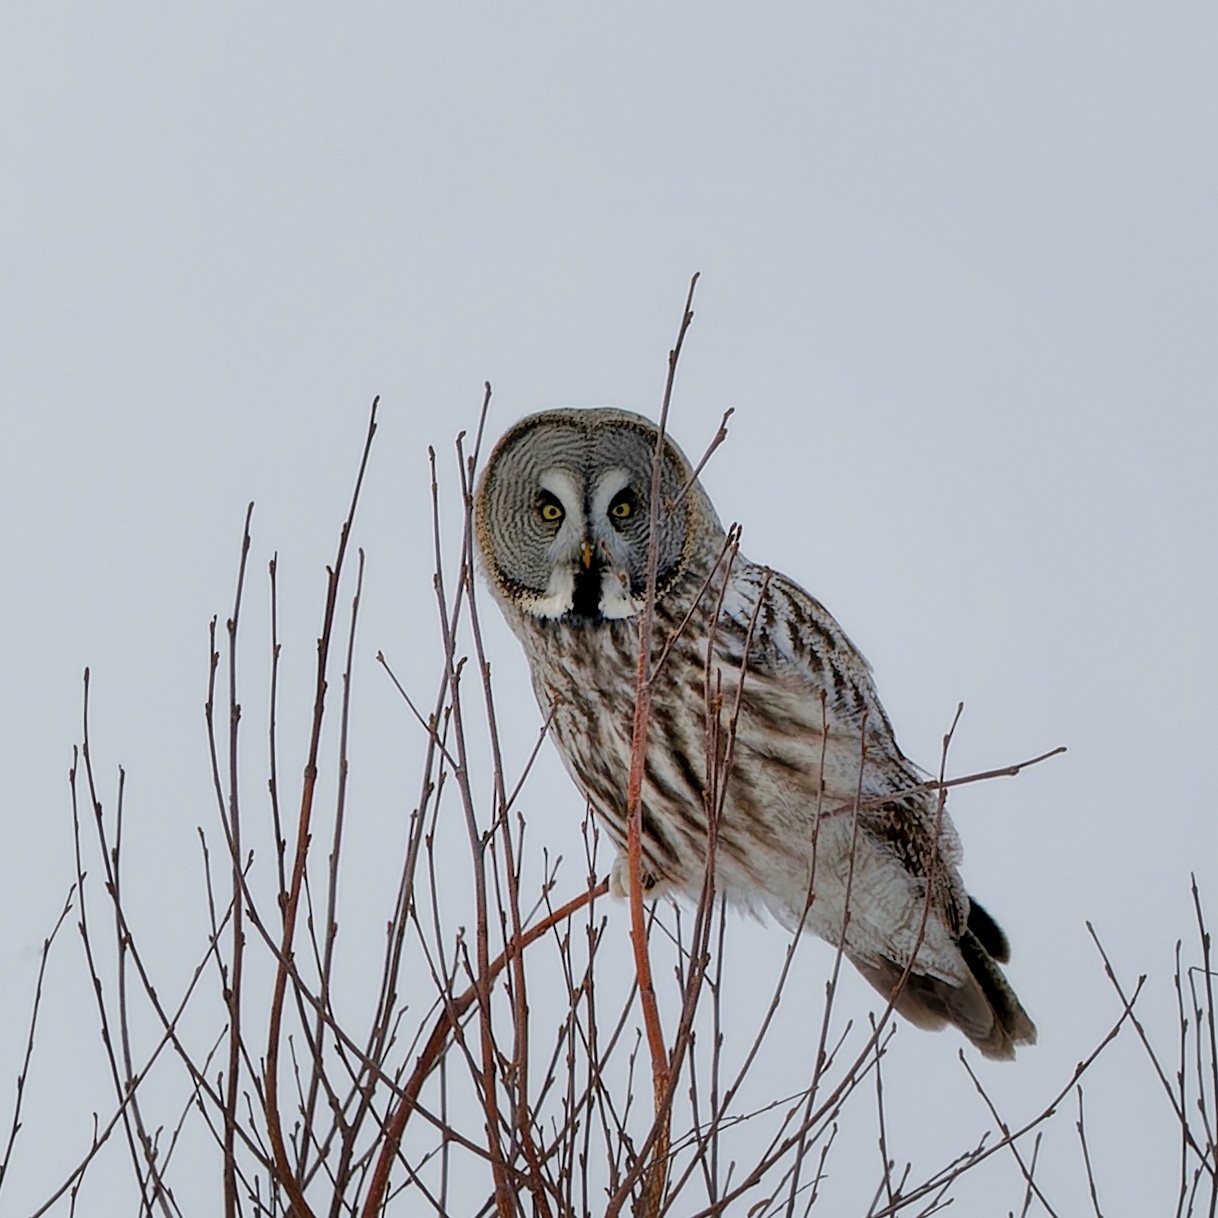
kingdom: Animalia
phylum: Chordata
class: Aves
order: Strigiformes
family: Strigidae
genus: Strix
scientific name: Strix nebulosa
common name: Great grey owl
